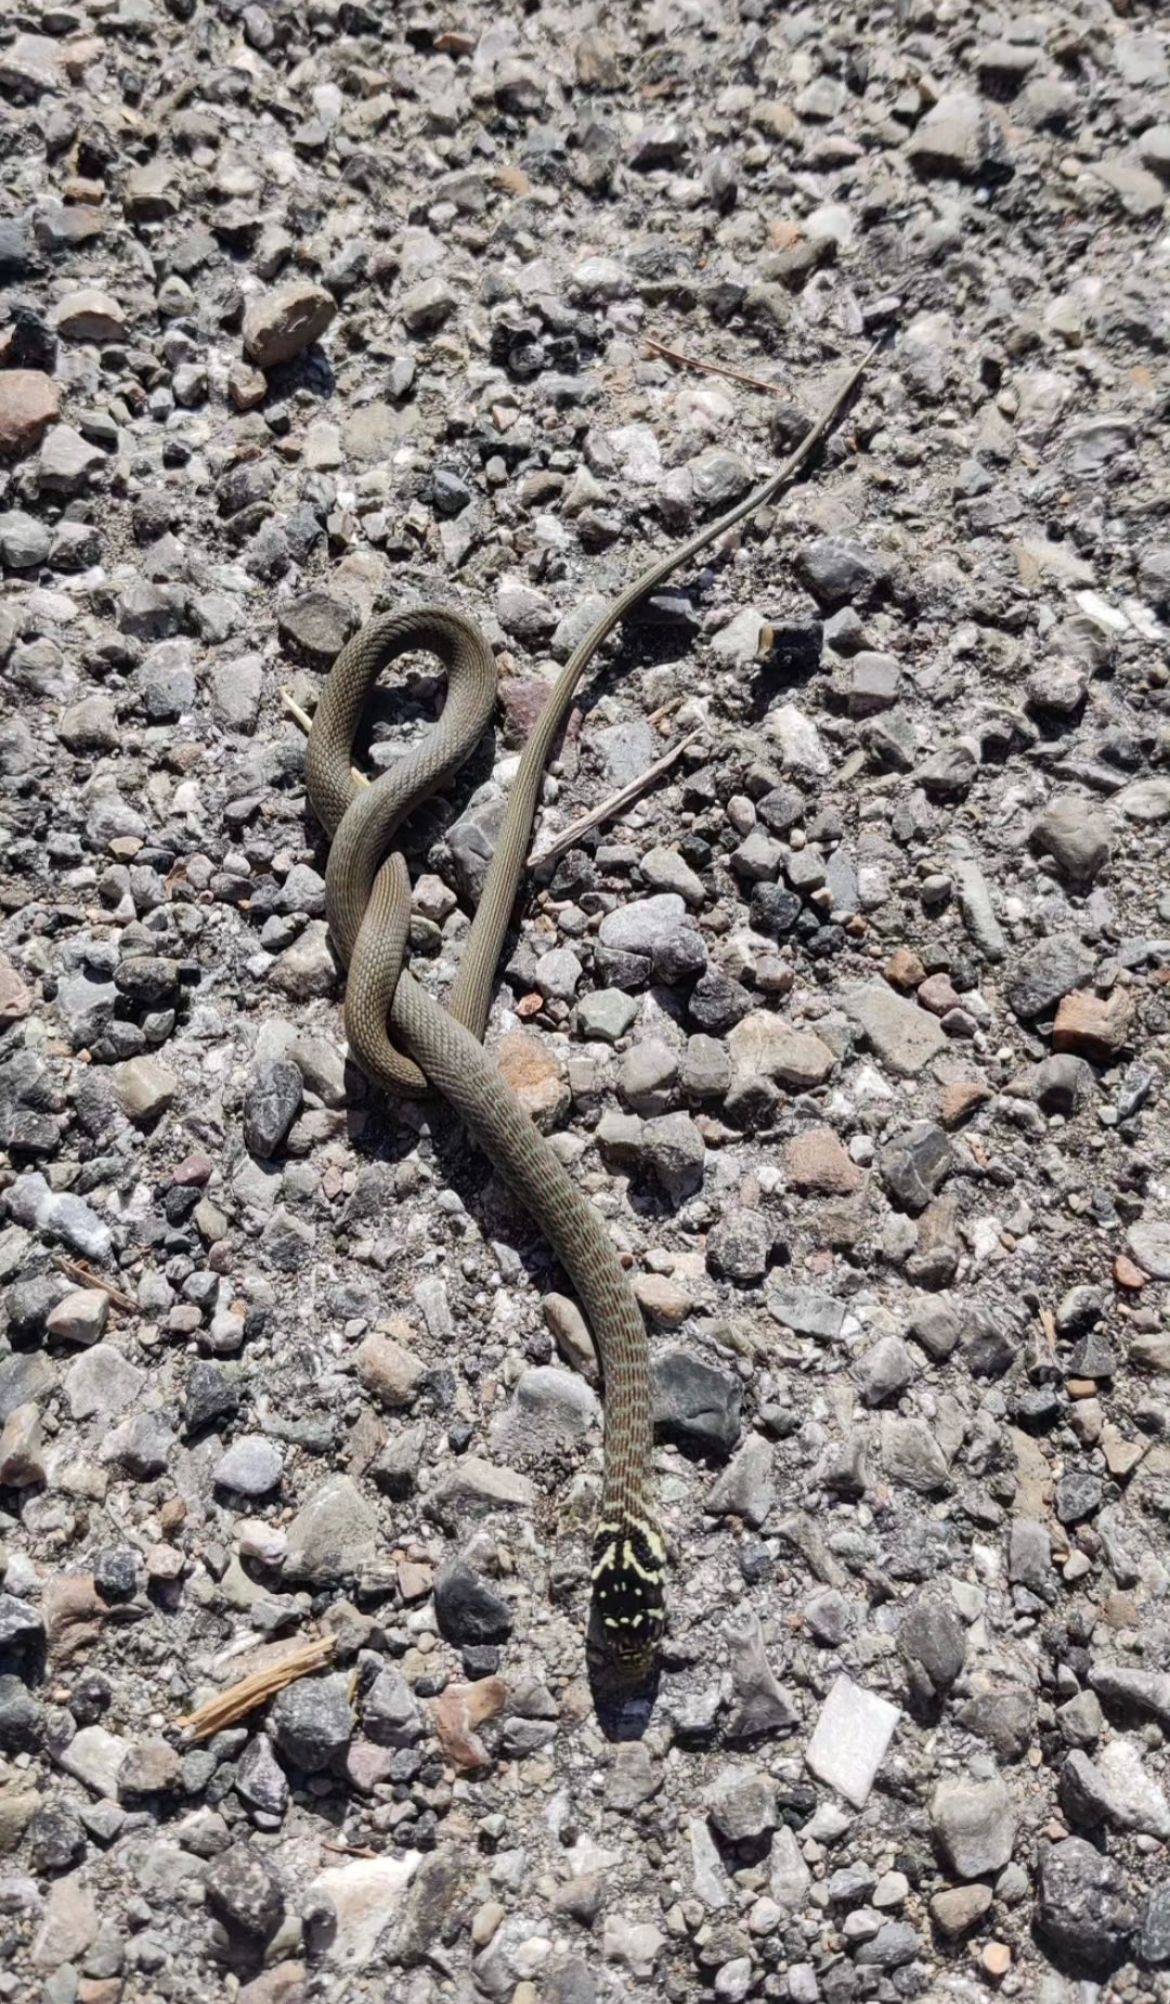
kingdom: Animalia
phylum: Chordata
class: Squamata
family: Colubridae
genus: Hierophis
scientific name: Hierophis viridiflavus
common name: Green whip snake
